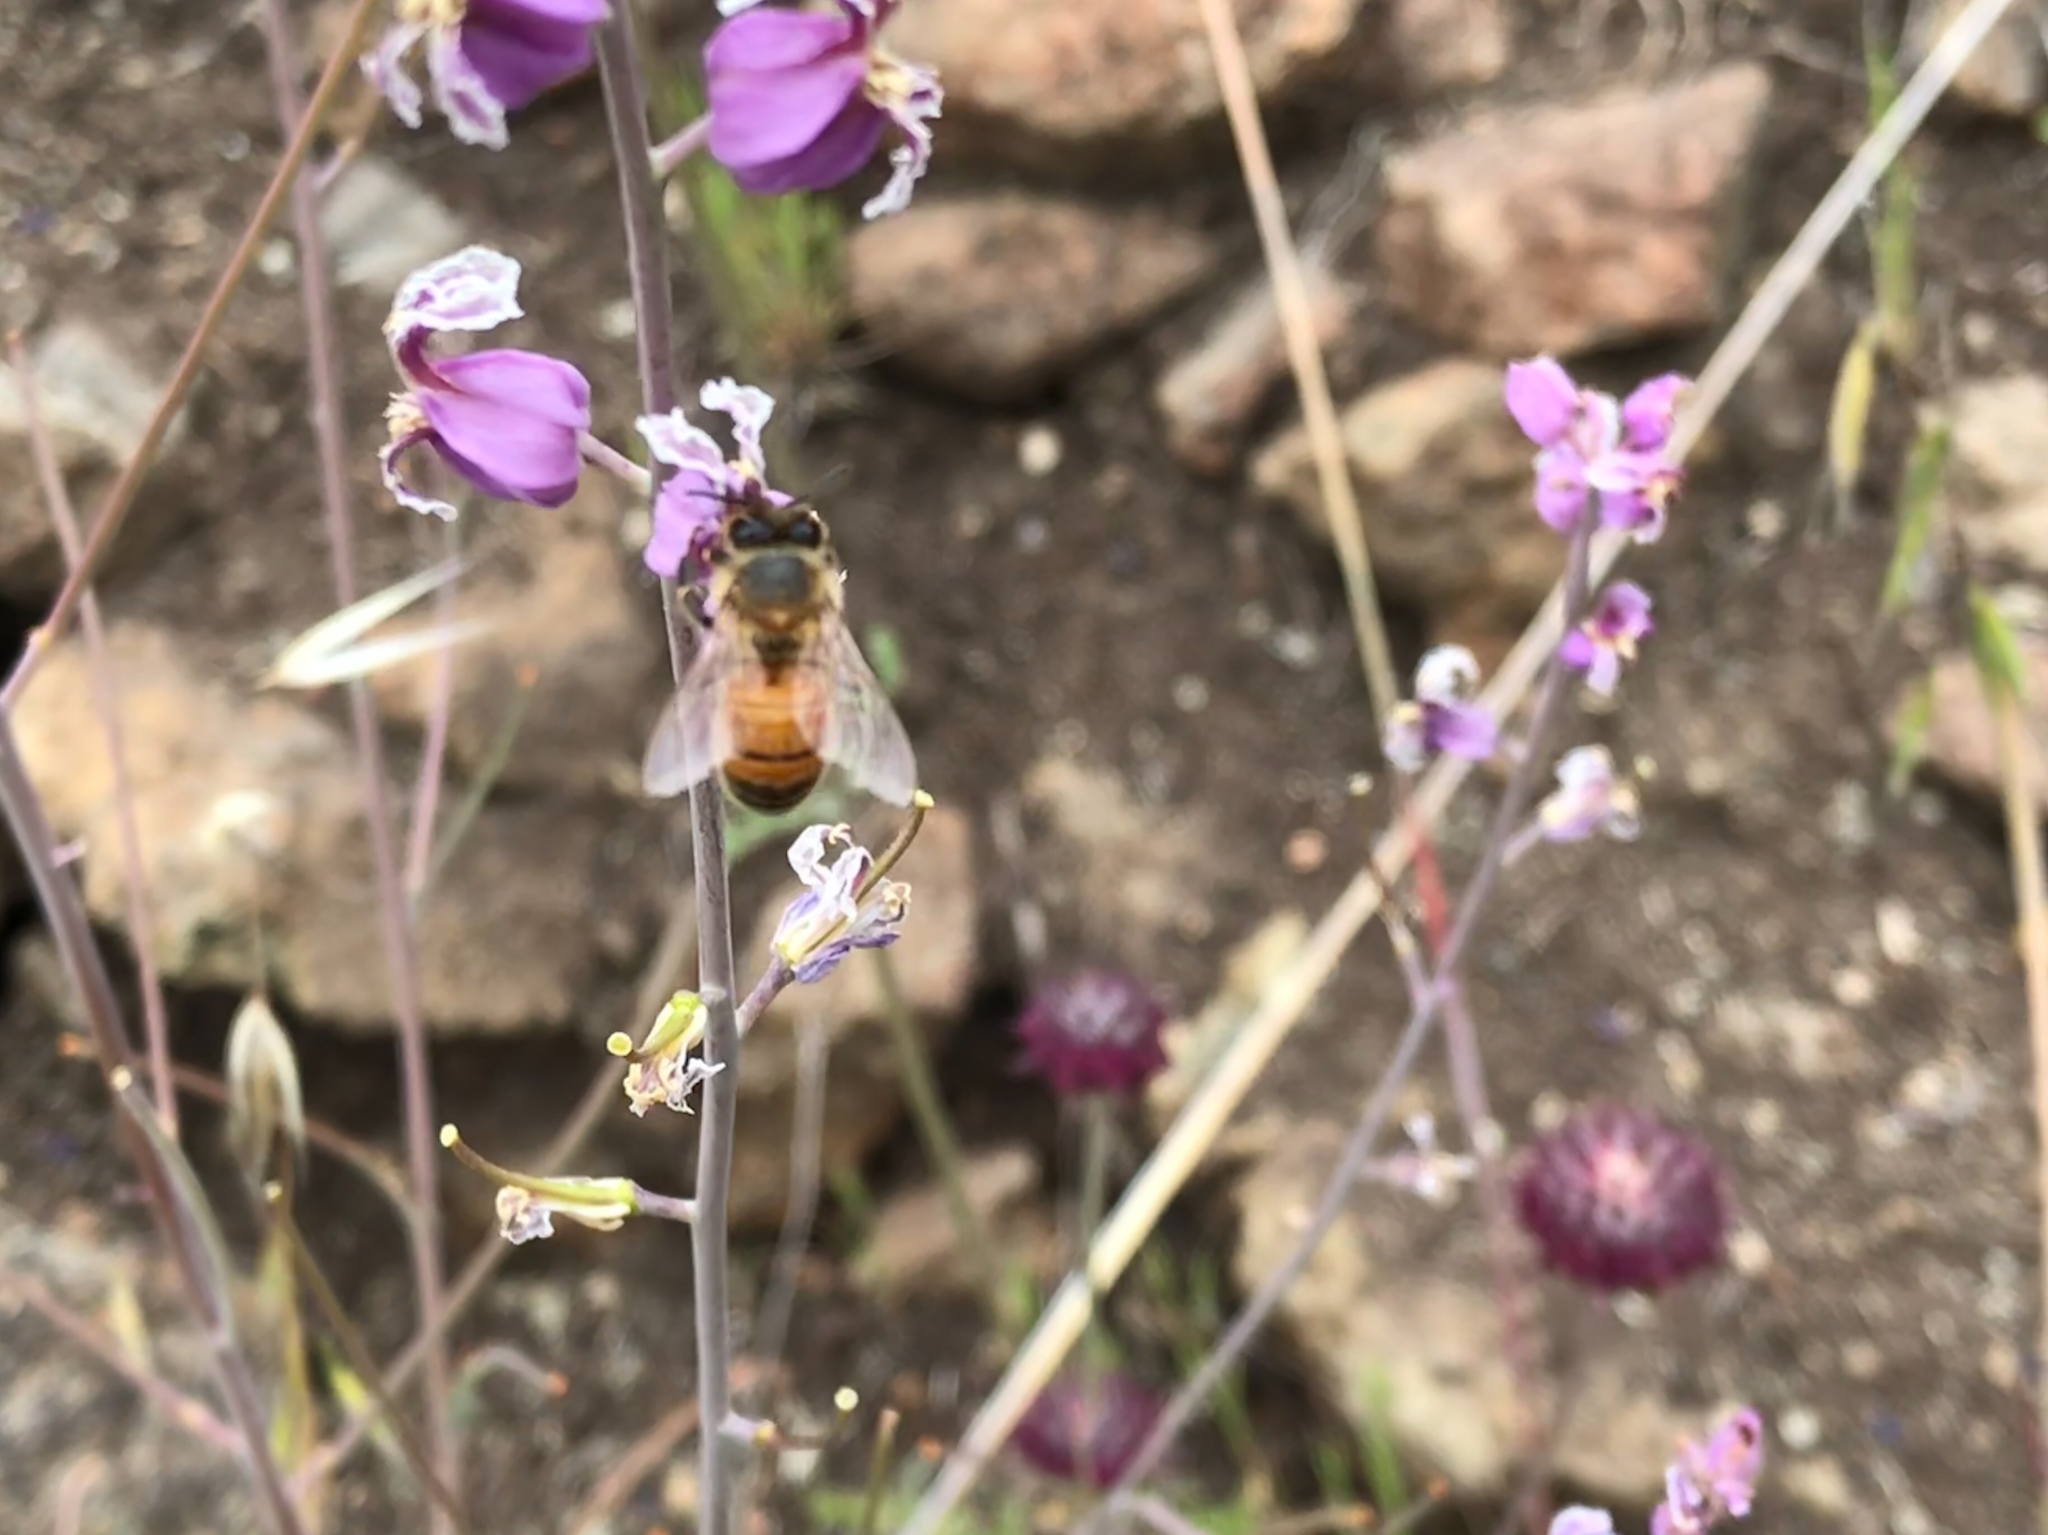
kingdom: Animalia
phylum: Arthropoda
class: Insecta
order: Hymenoptera
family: Apidae
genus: Apis
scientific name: Apis mellifera
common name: Honey bee
